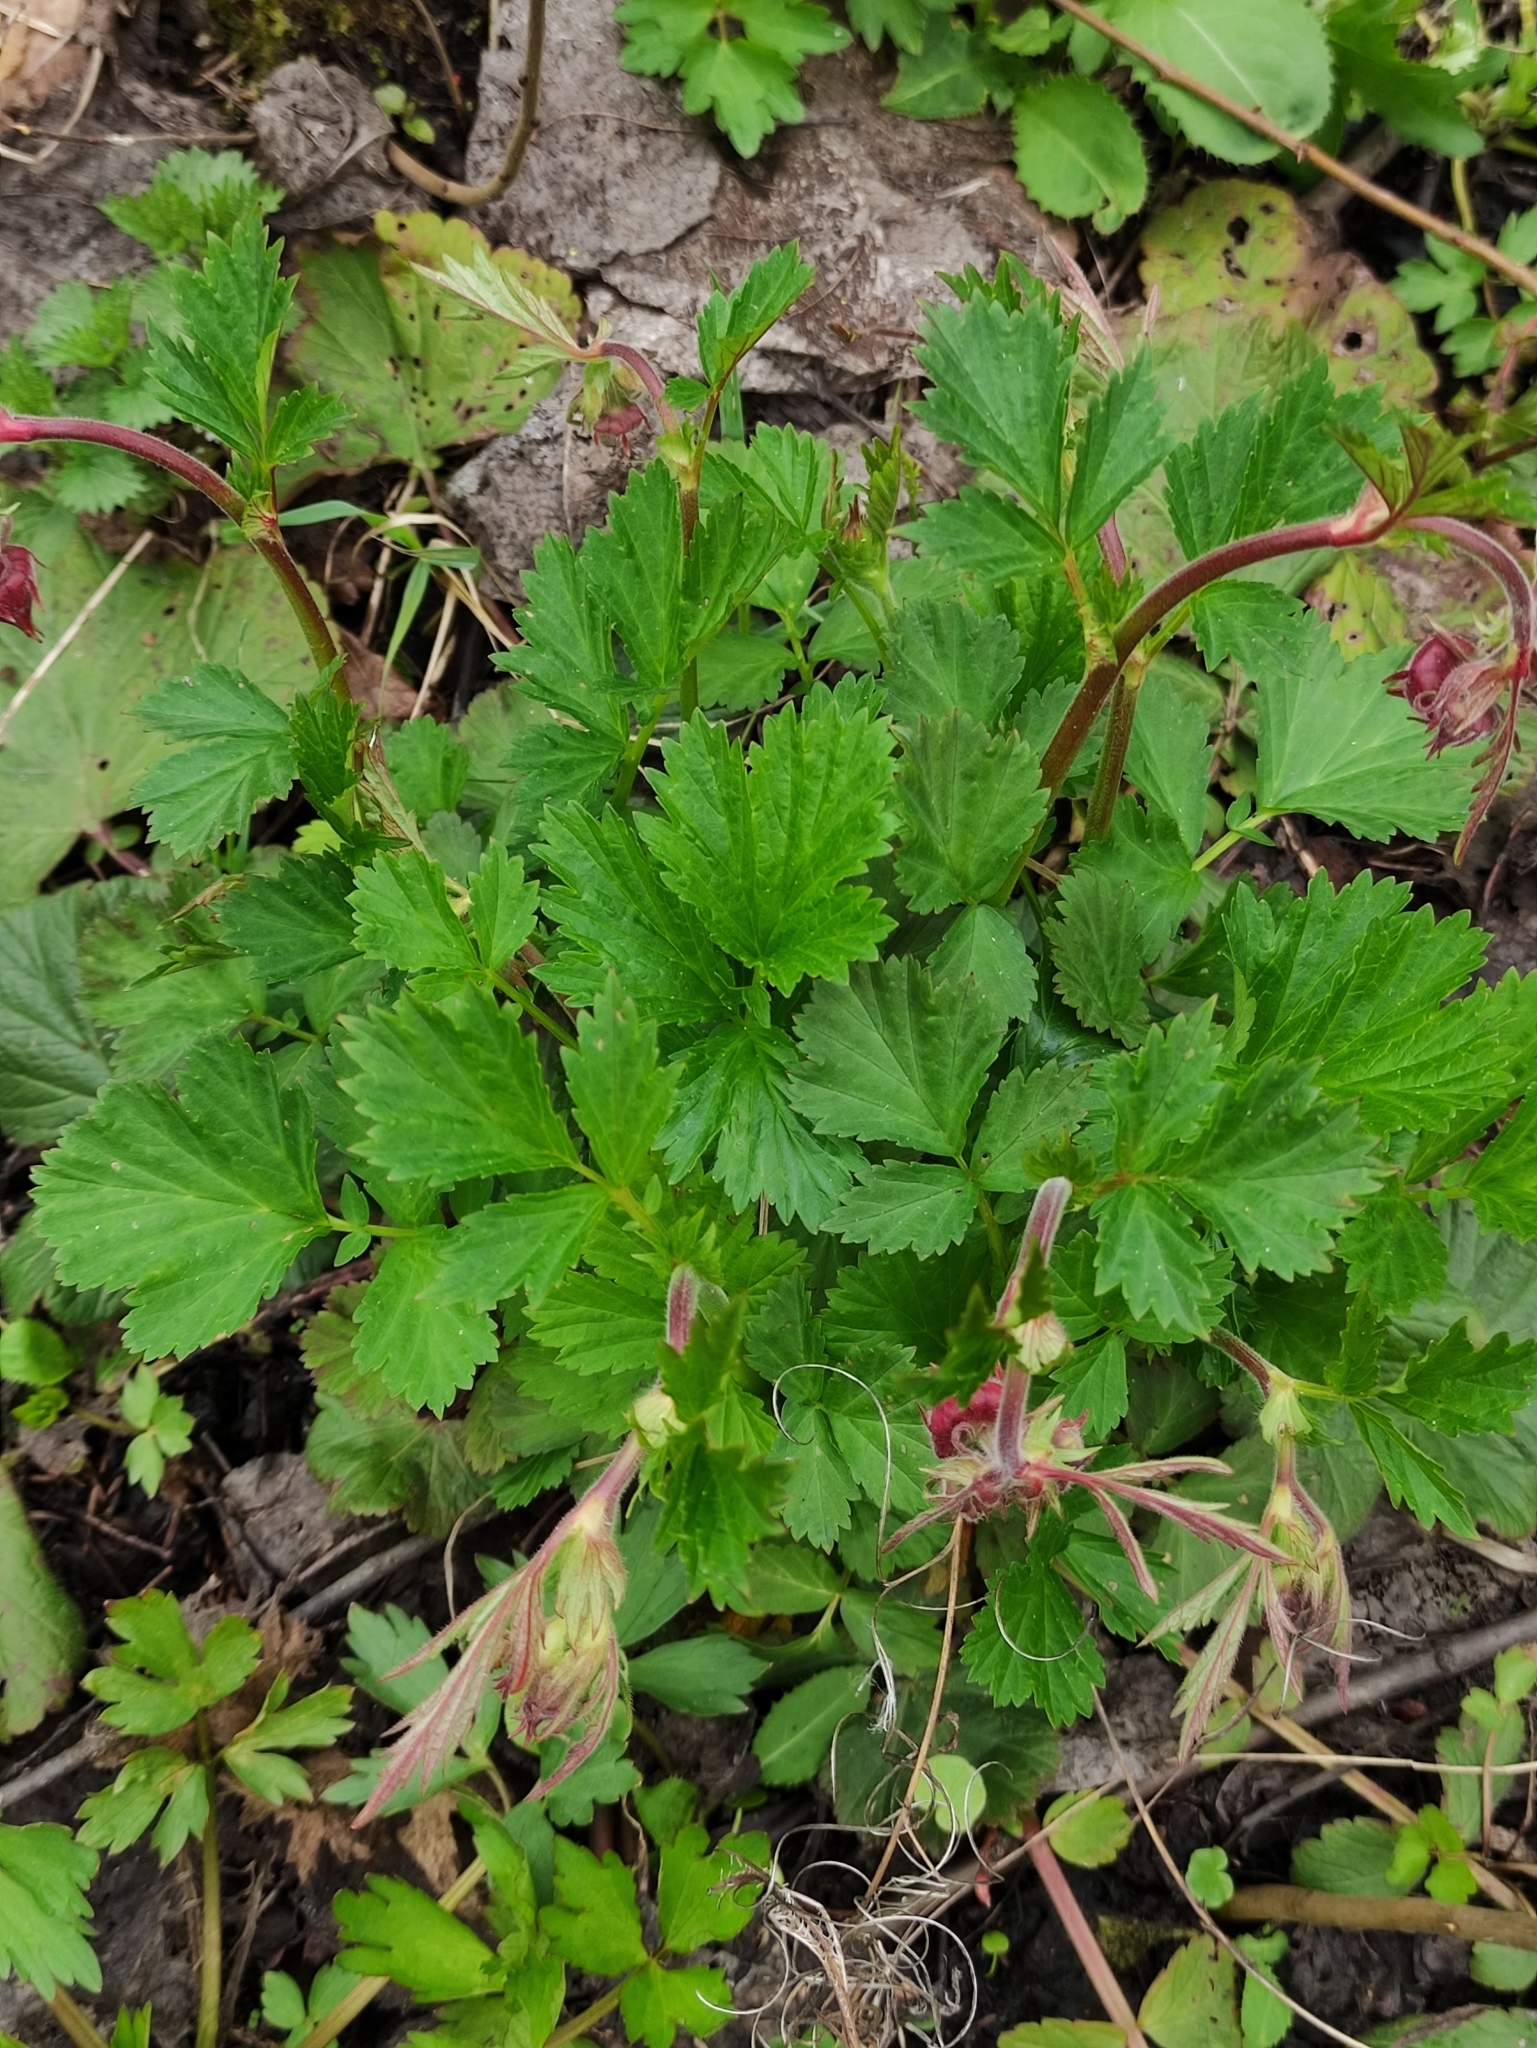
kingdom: Plantae
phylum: Tracheophyta
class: Magnoliopsida
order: Rosales
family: Rosaceae
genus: Geum
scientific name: Geum rivale
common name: Water avens
